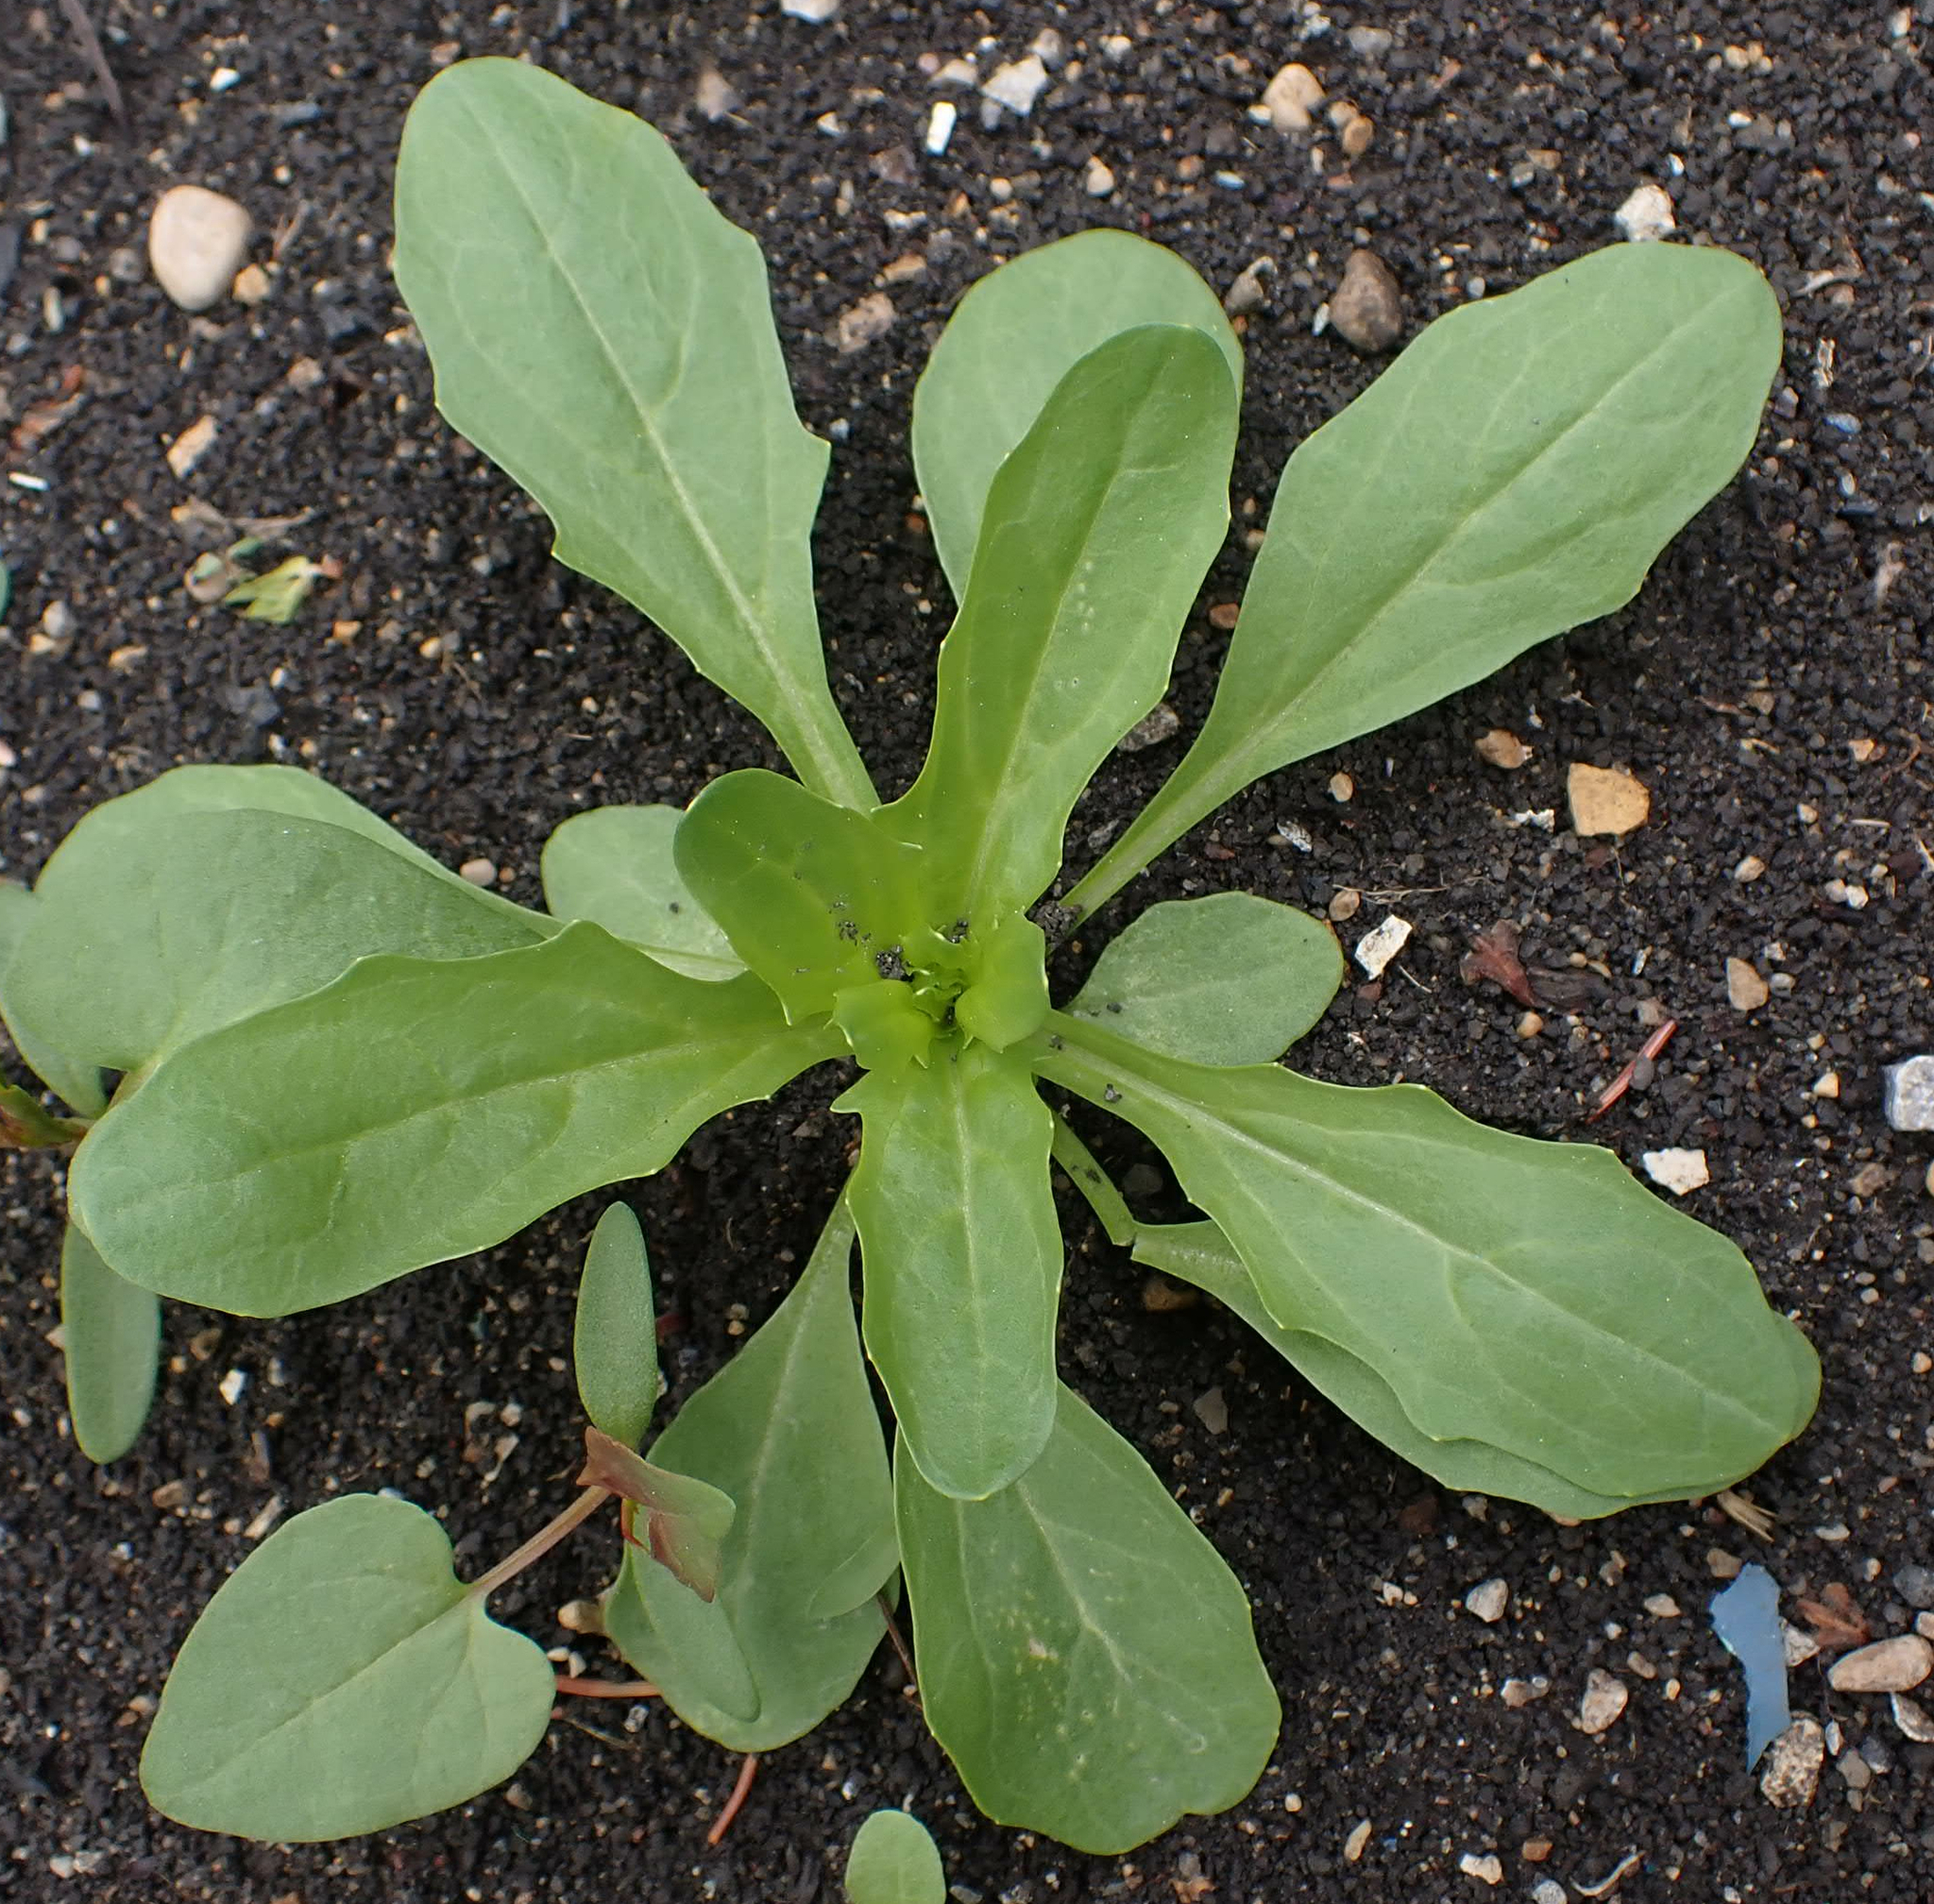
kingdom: Plantae
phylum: Tracheophyta
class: Magnoliopsida
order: Brassicales
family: Brassicaceae
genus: Thlaspi
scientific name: Thlaspi arvense
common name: Field pennycress
